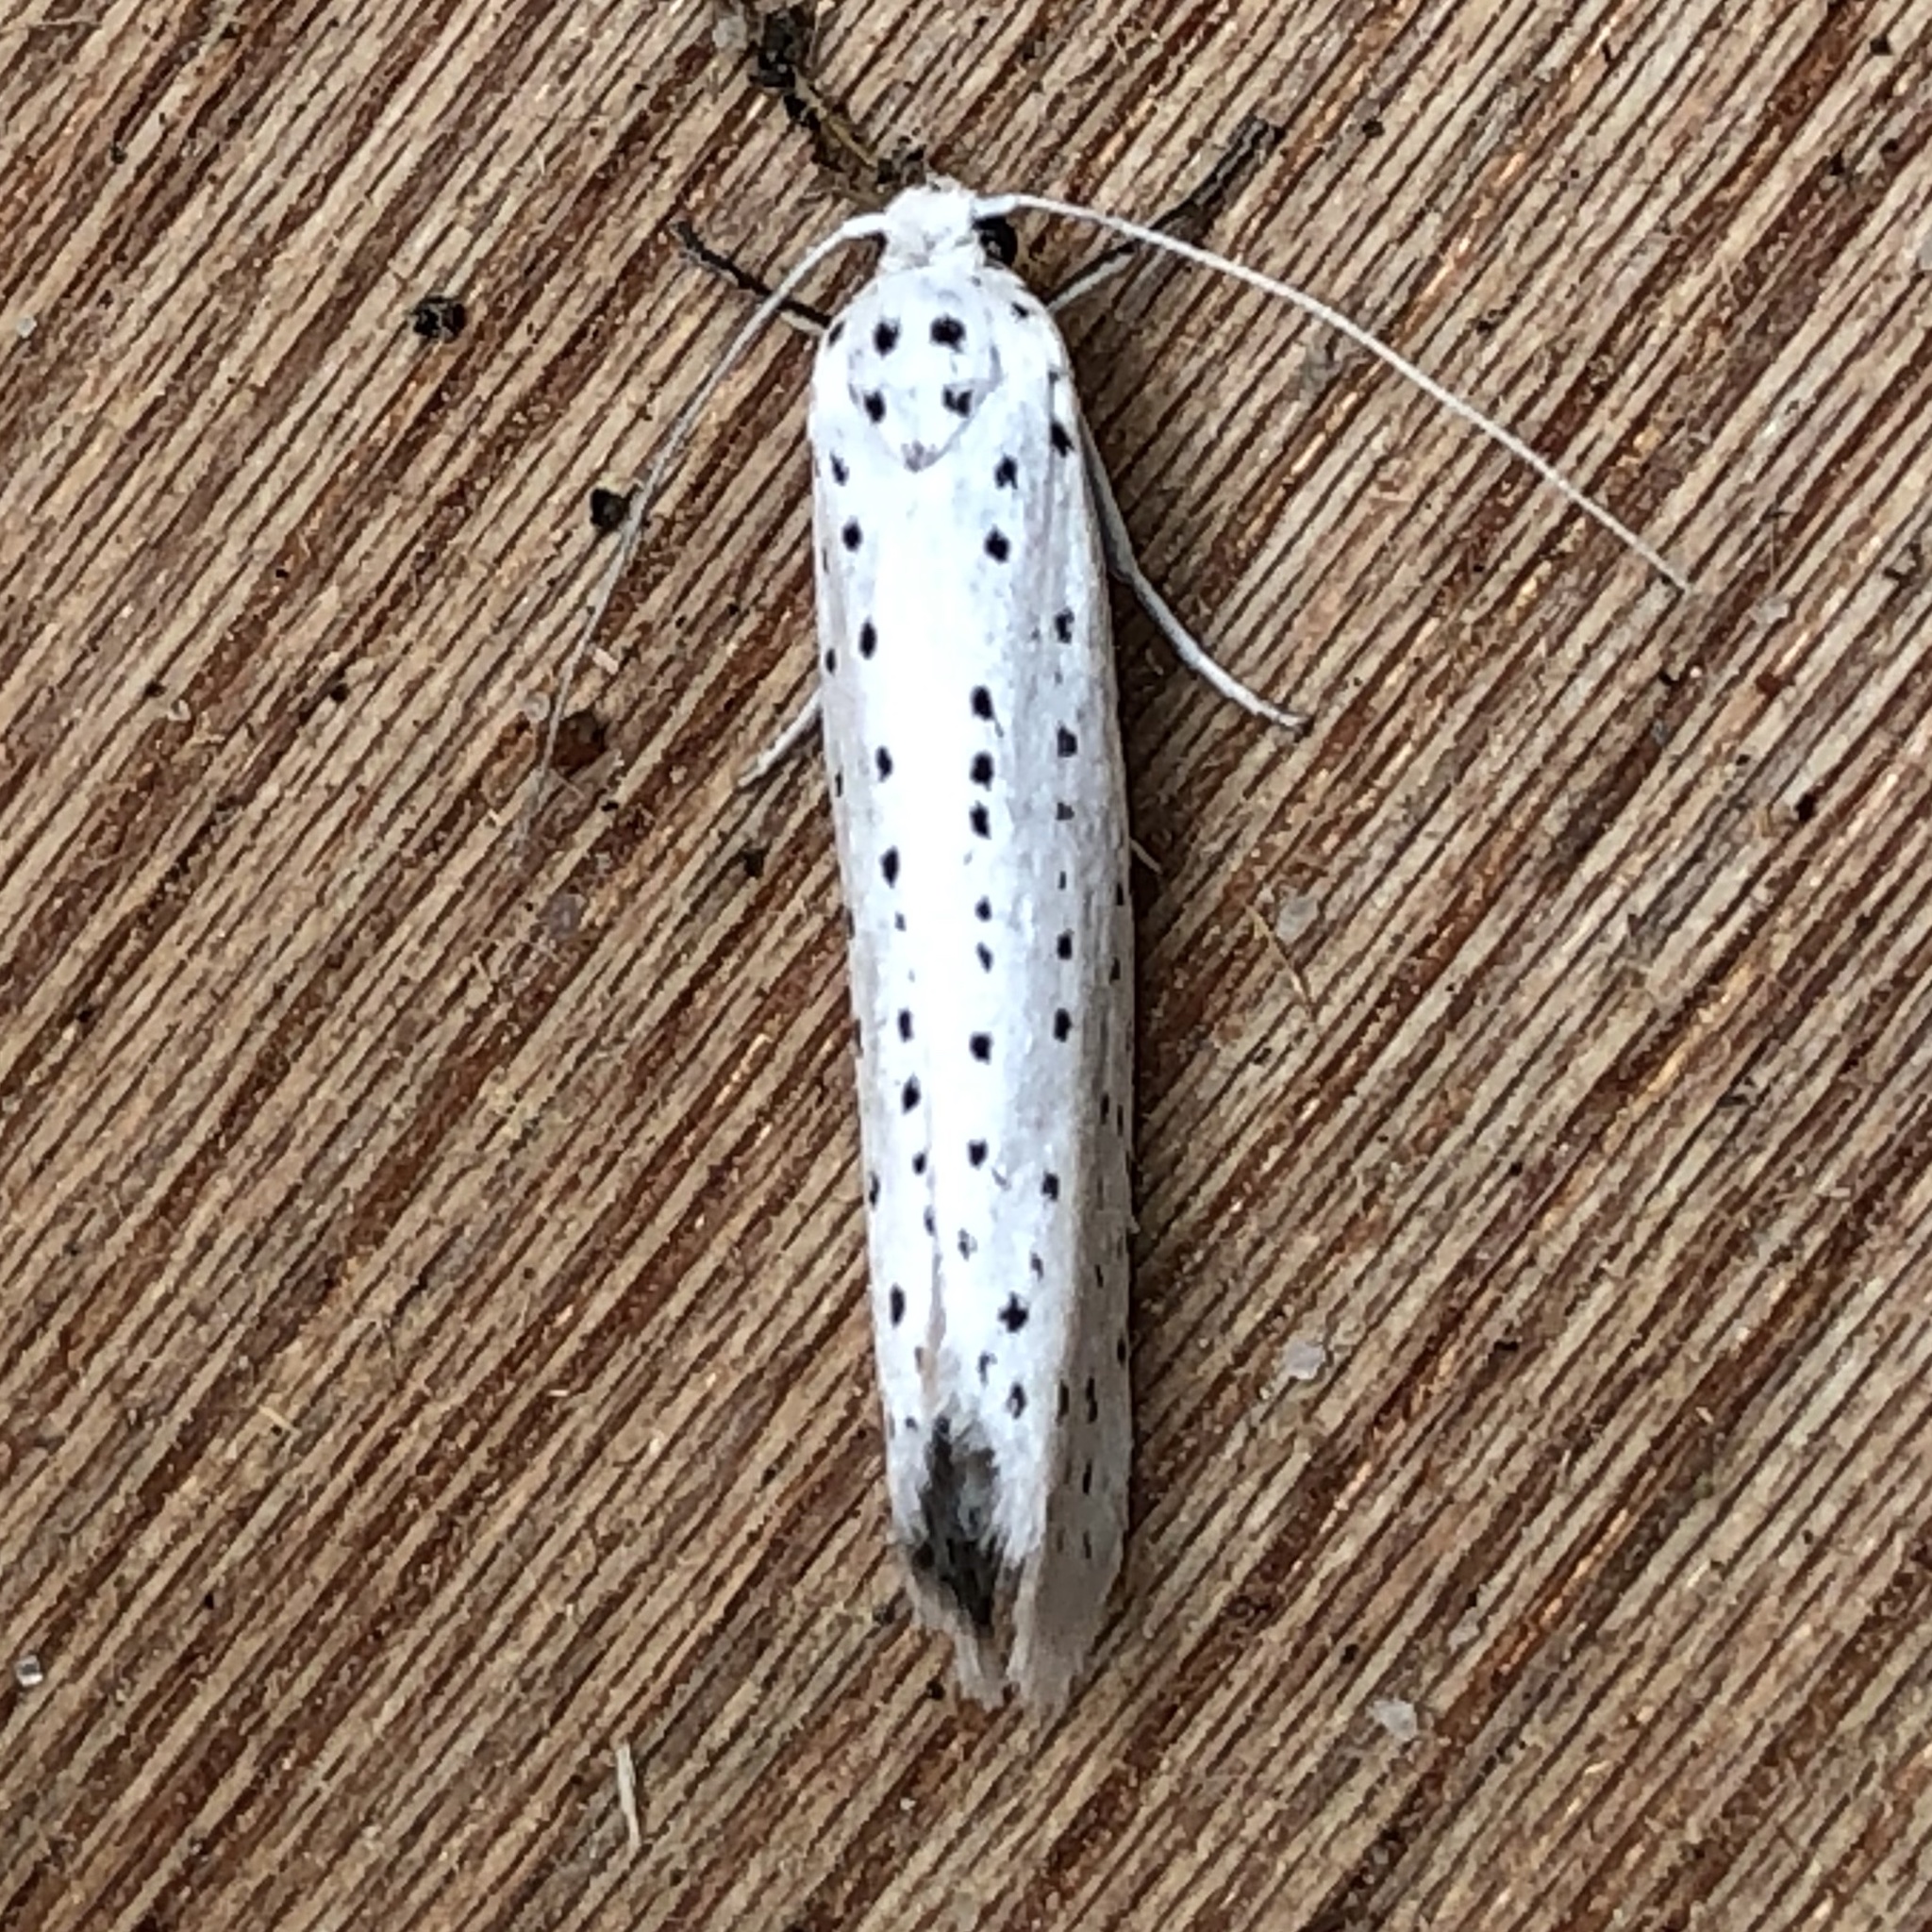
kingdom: Animalia
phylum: Arthropoda
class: Insecta
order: Lepidoptera
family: Yponomeutidae
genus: Yponomeuta
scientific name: Yponomeuta evonymella
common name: Bird-cherry ermine
